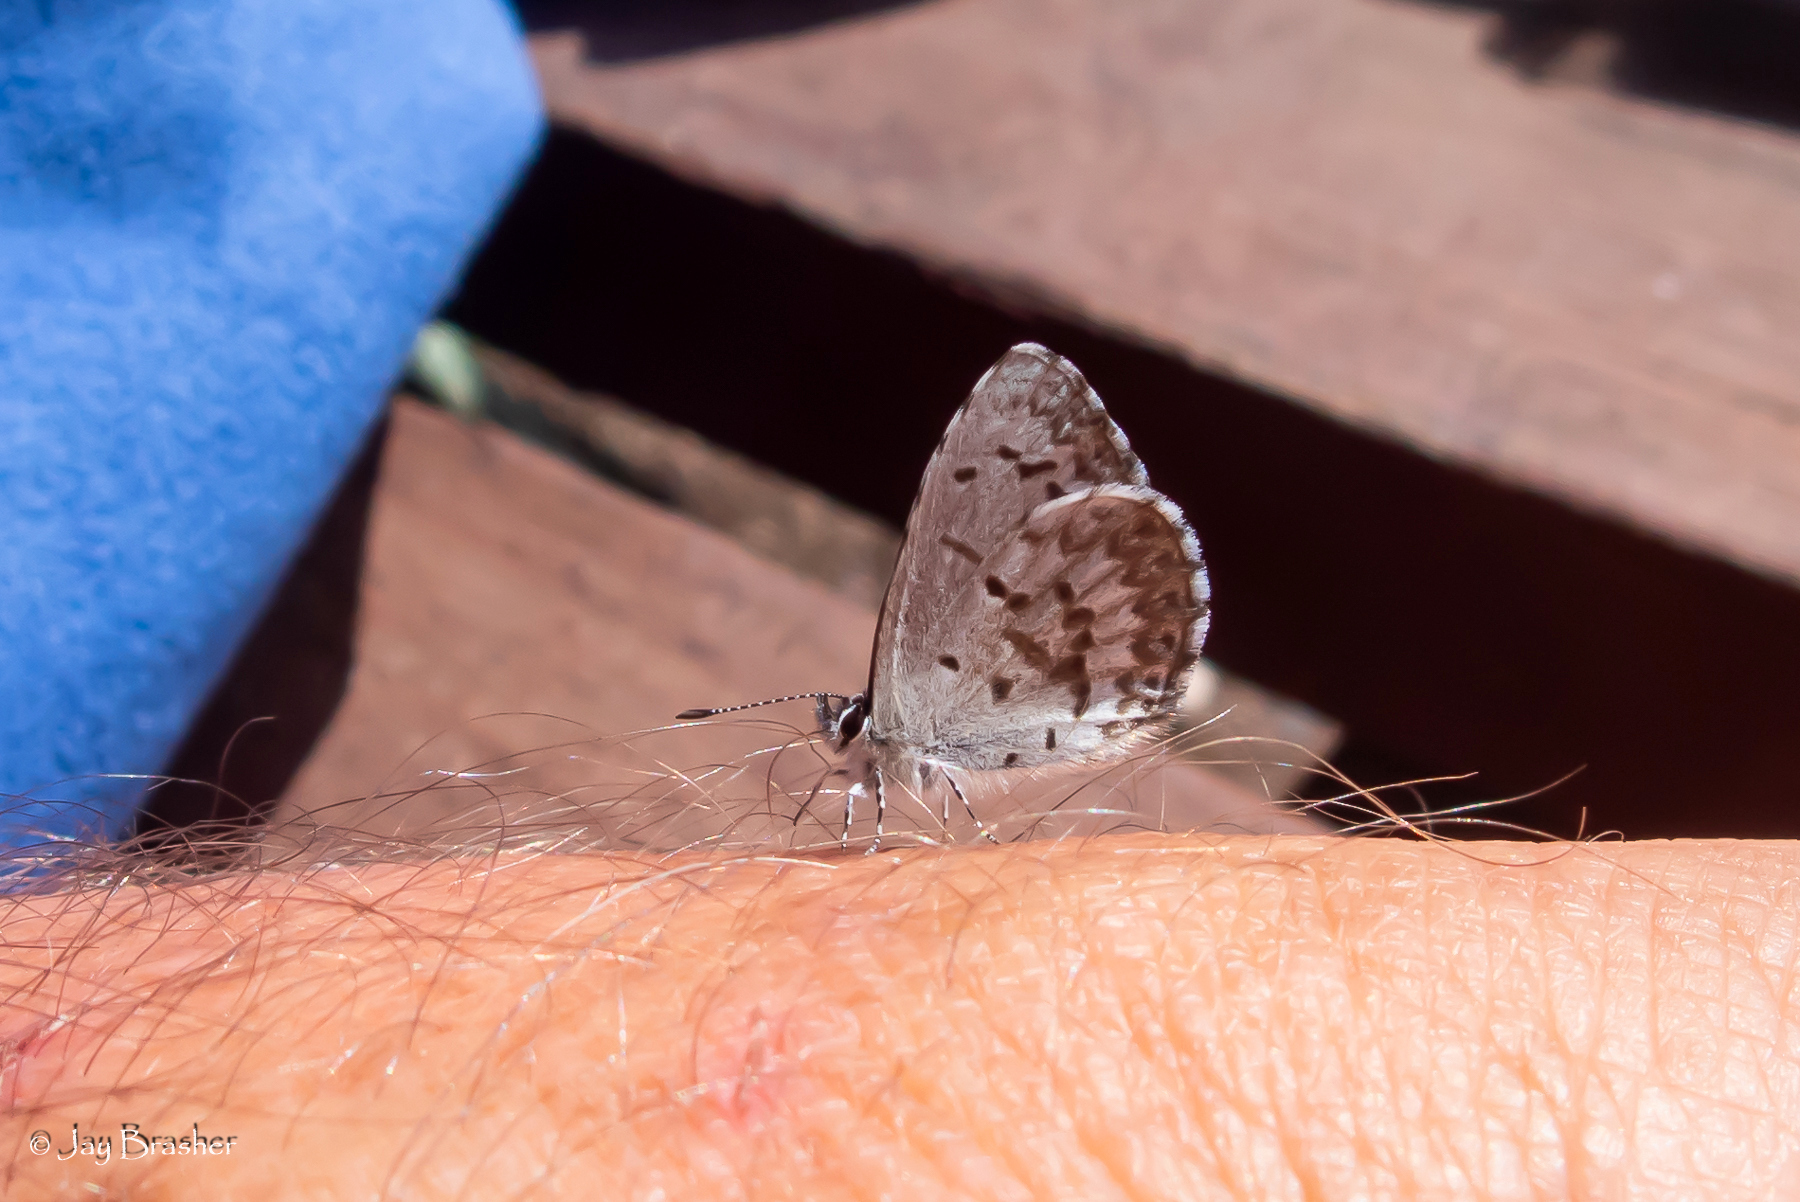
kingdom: Animalia
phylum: Arthropoda
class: Insecta
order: Lepidoptera
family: Lycaenidae
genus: Celastrina
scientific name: Celastrina lucia
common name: Lucia azure
